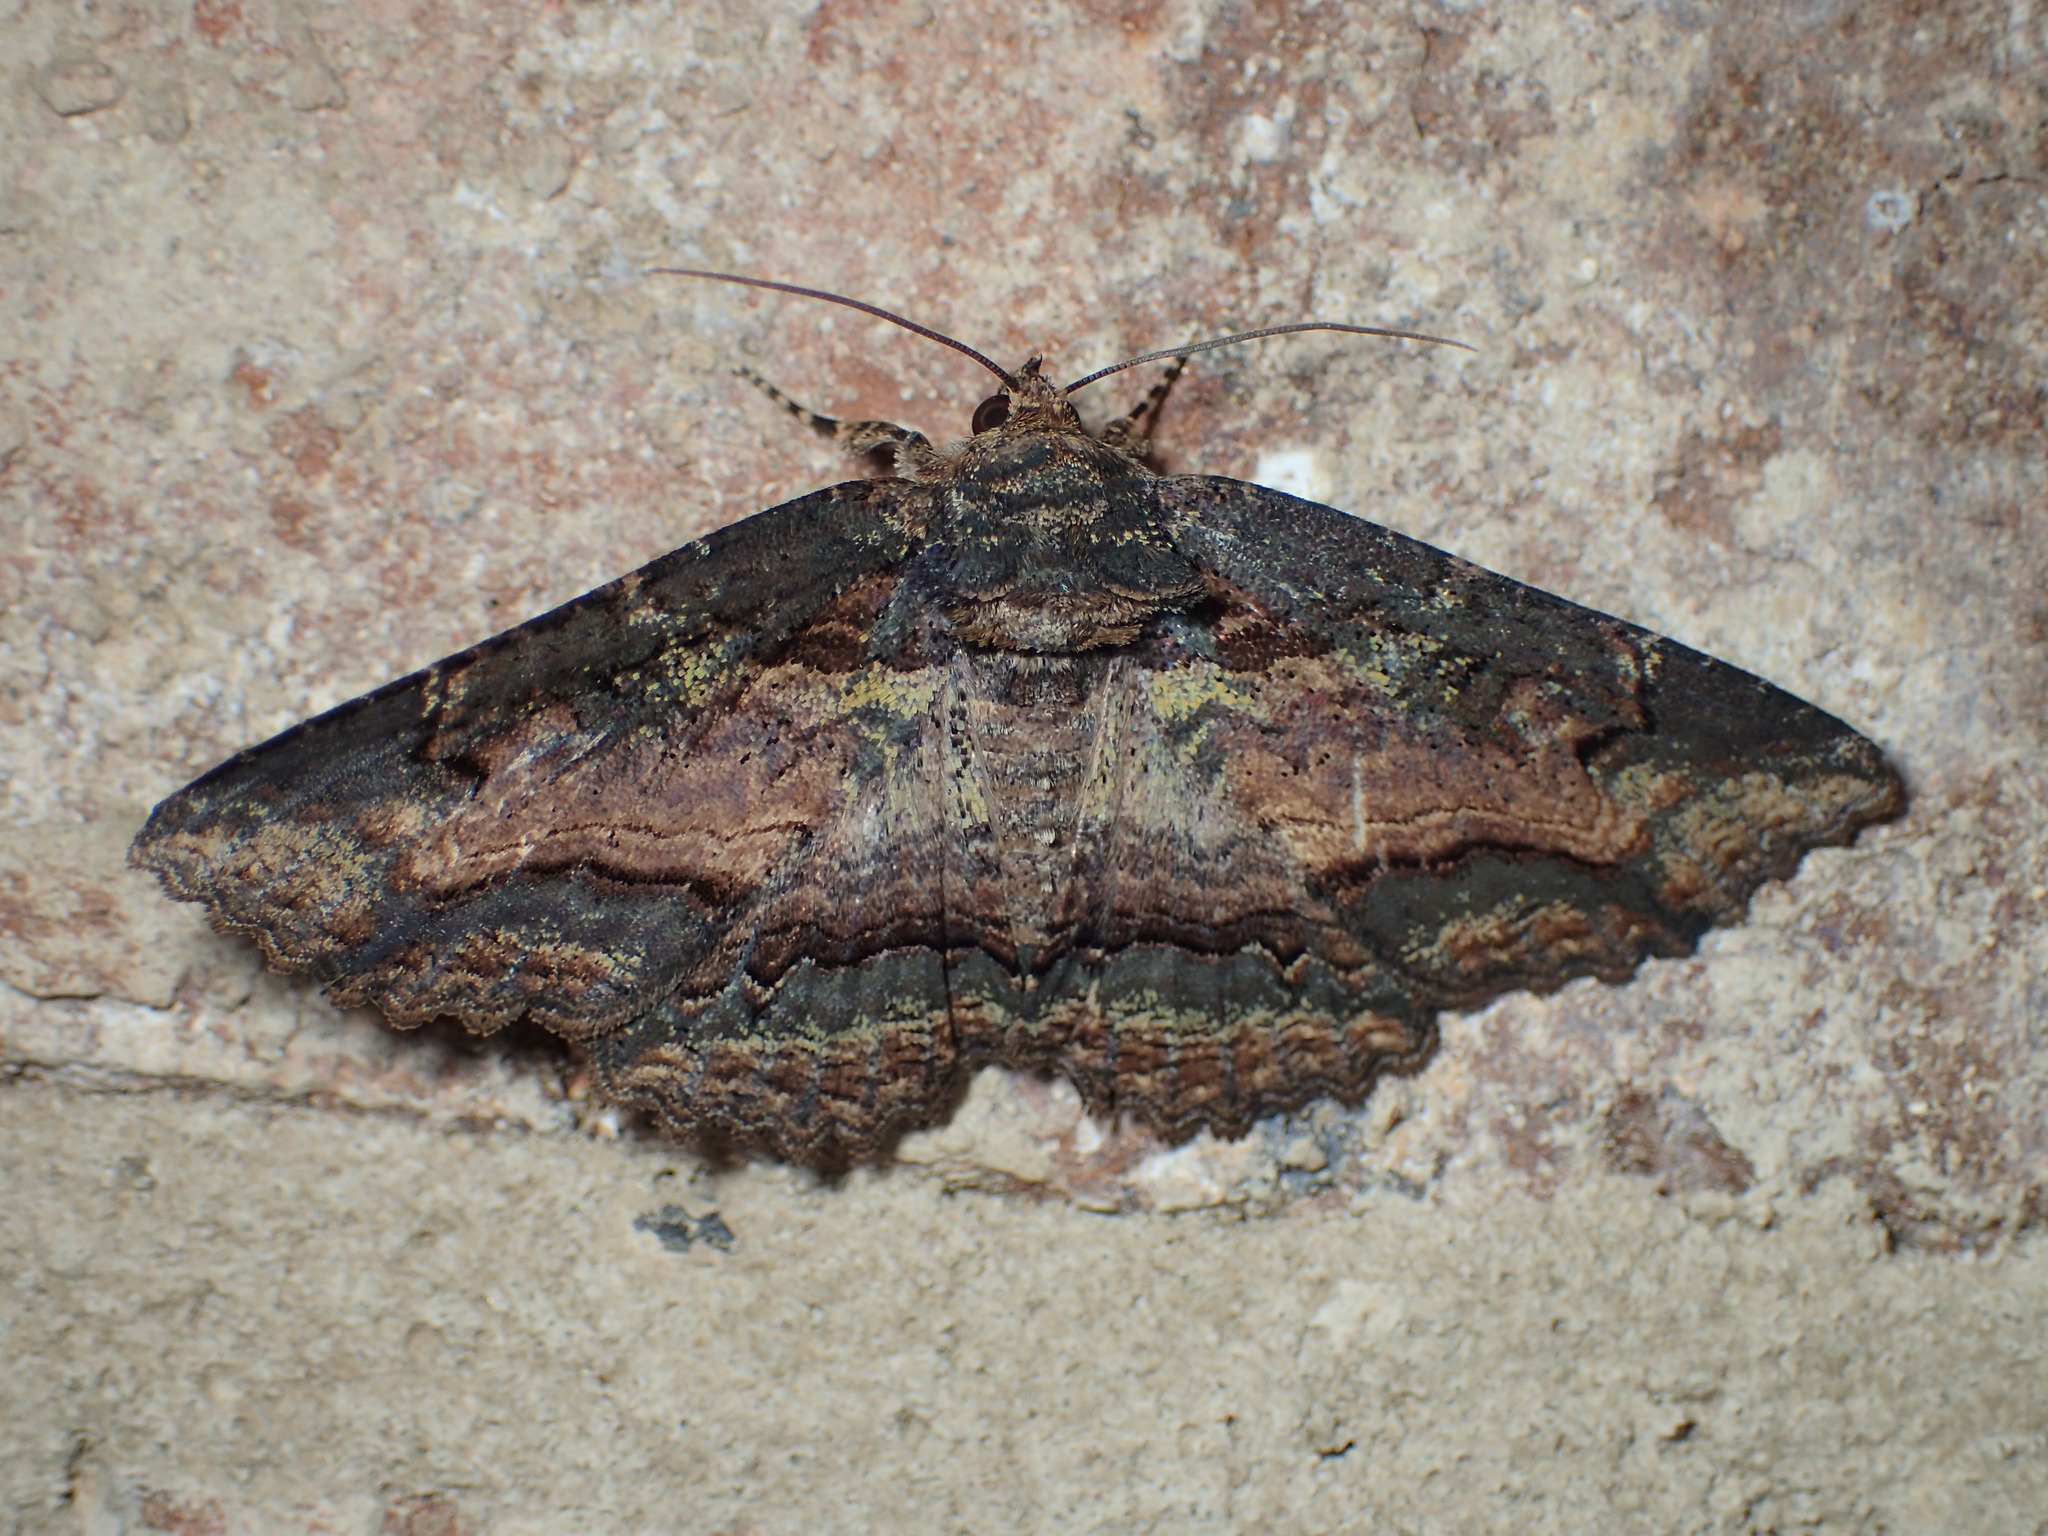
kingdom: Animalia
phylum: Arthropoda
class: Insecta
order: Lepidoptera
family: Erebidae
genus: Zale
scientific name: Zale minerea
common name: Colorful zale moth
